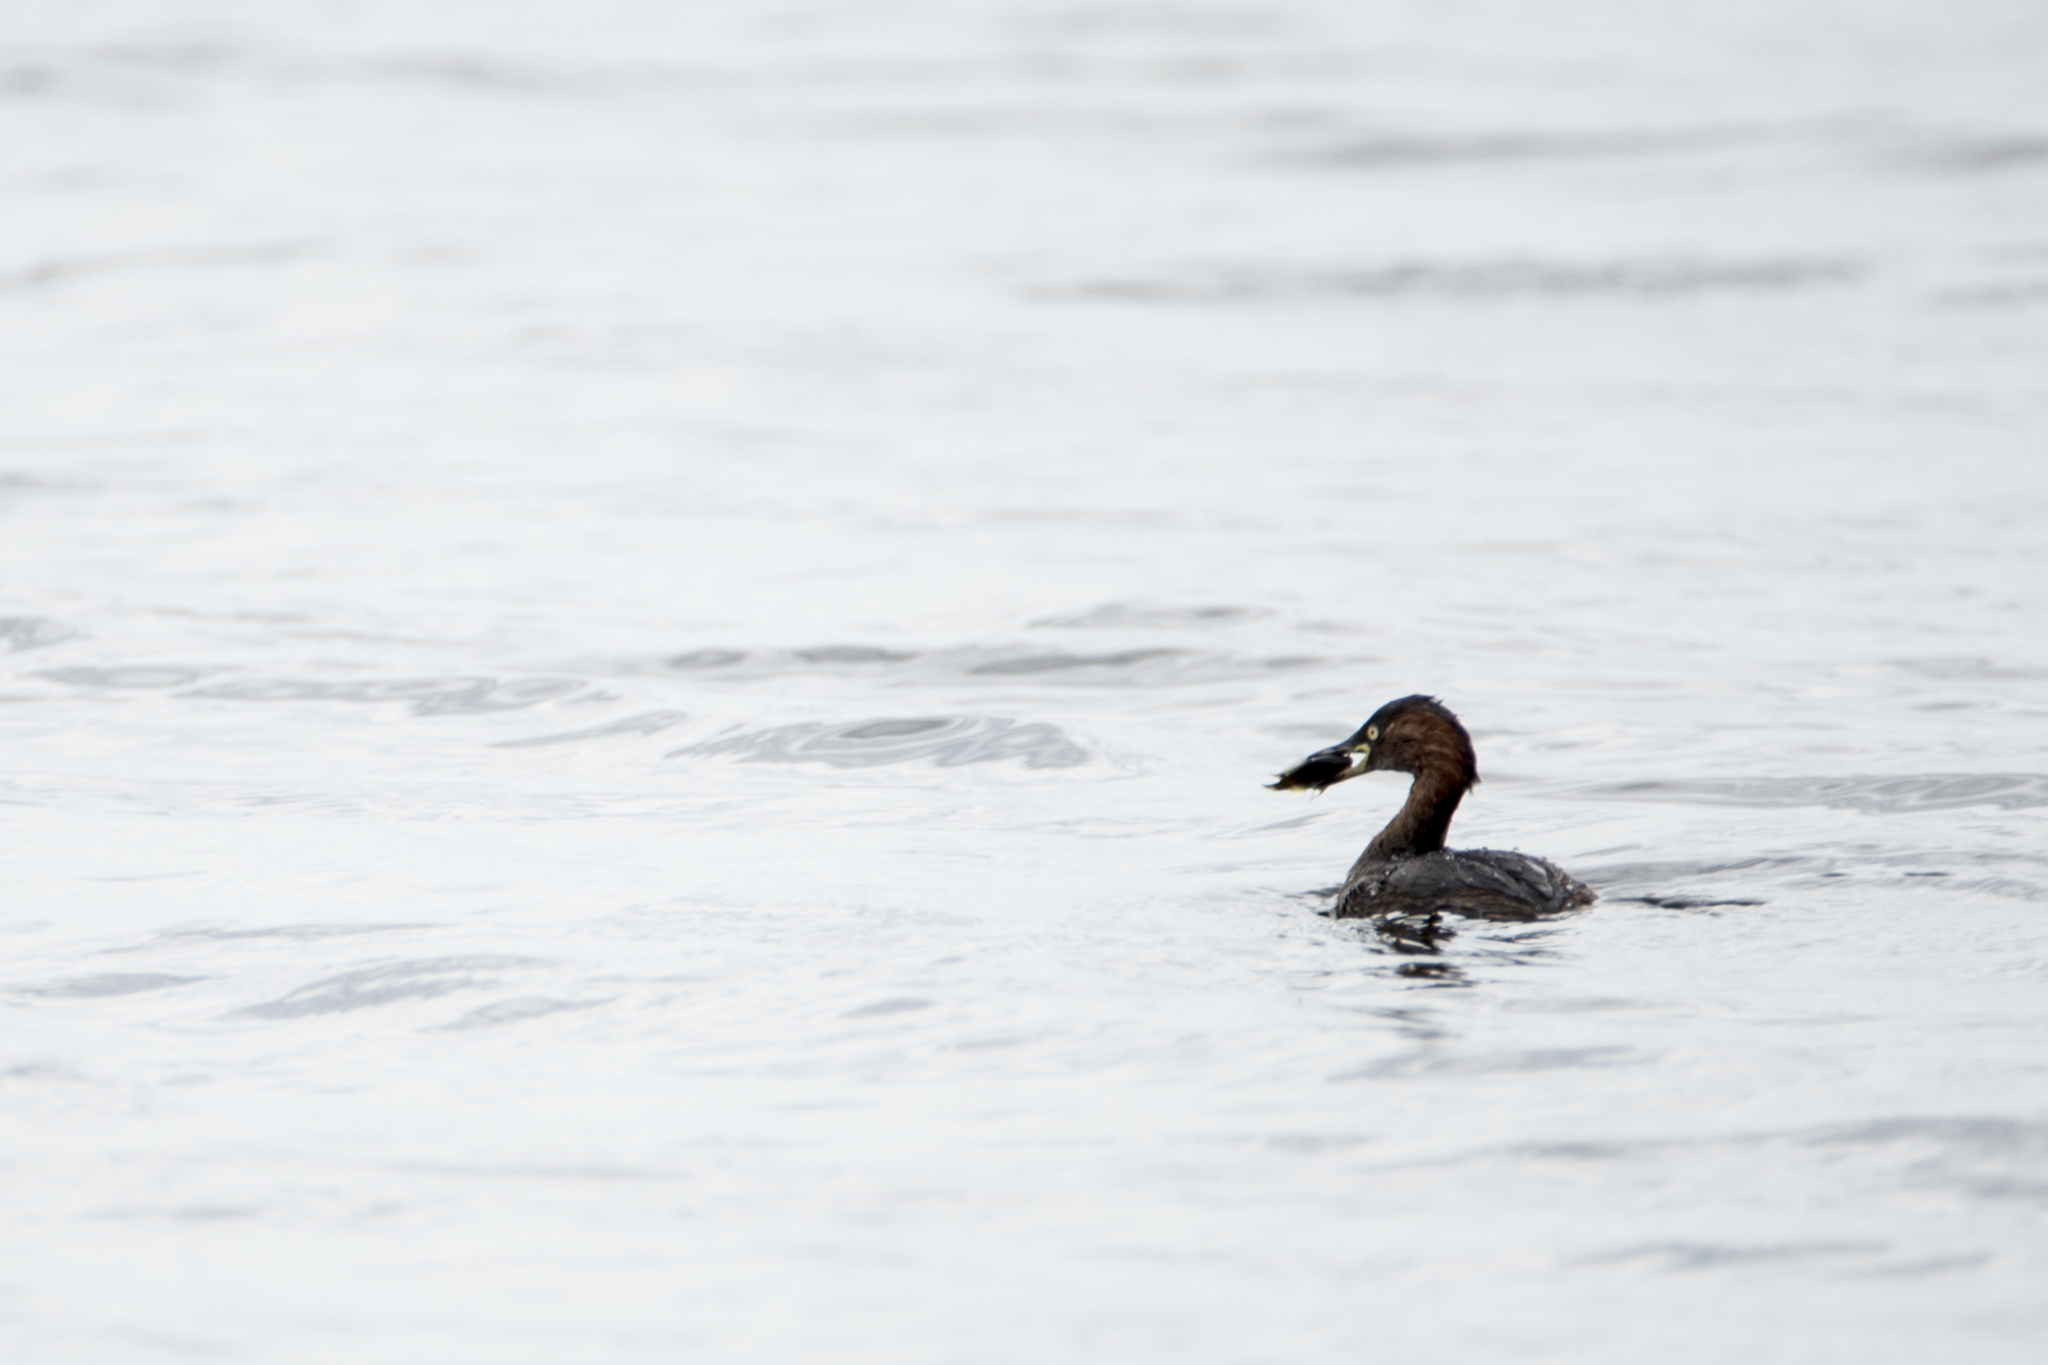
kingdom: Animalia
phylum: Chordata
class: Aves
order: Podicipediformes
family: Podicipedidae
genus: Tachybaptus
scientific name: Tachybaptus ruficollis
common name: Little grebe
